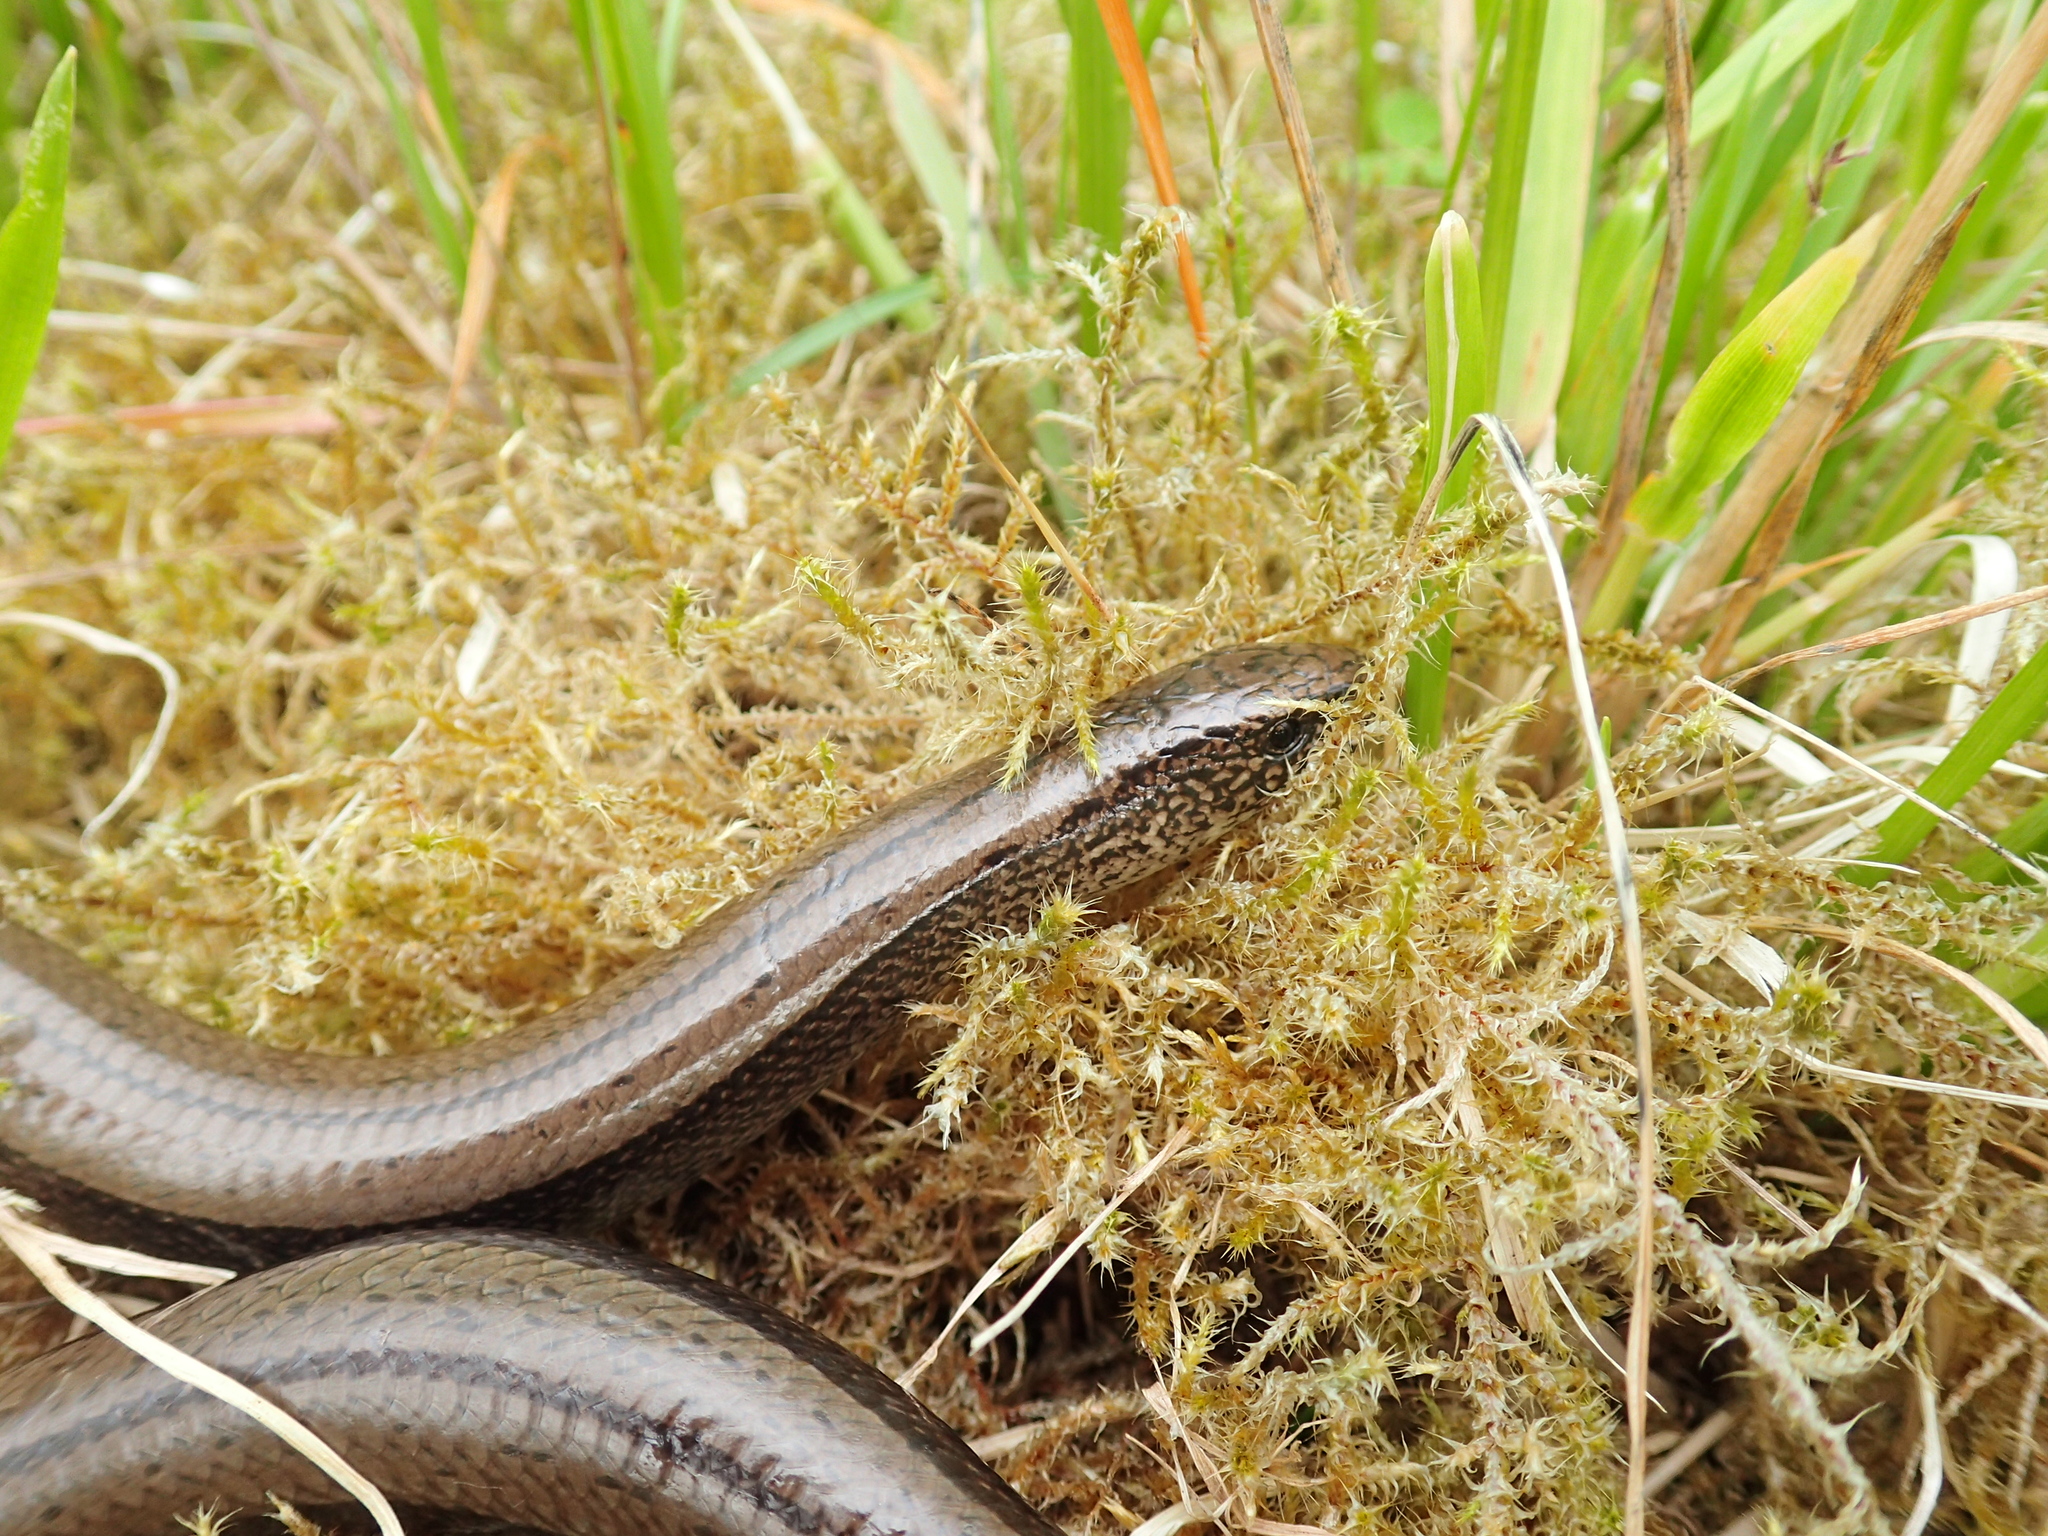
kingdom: Animalia
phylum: Chordata
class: Squamata
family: Anguidae
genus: Anguis
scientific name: Anguis fragilis
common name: Slow worm
